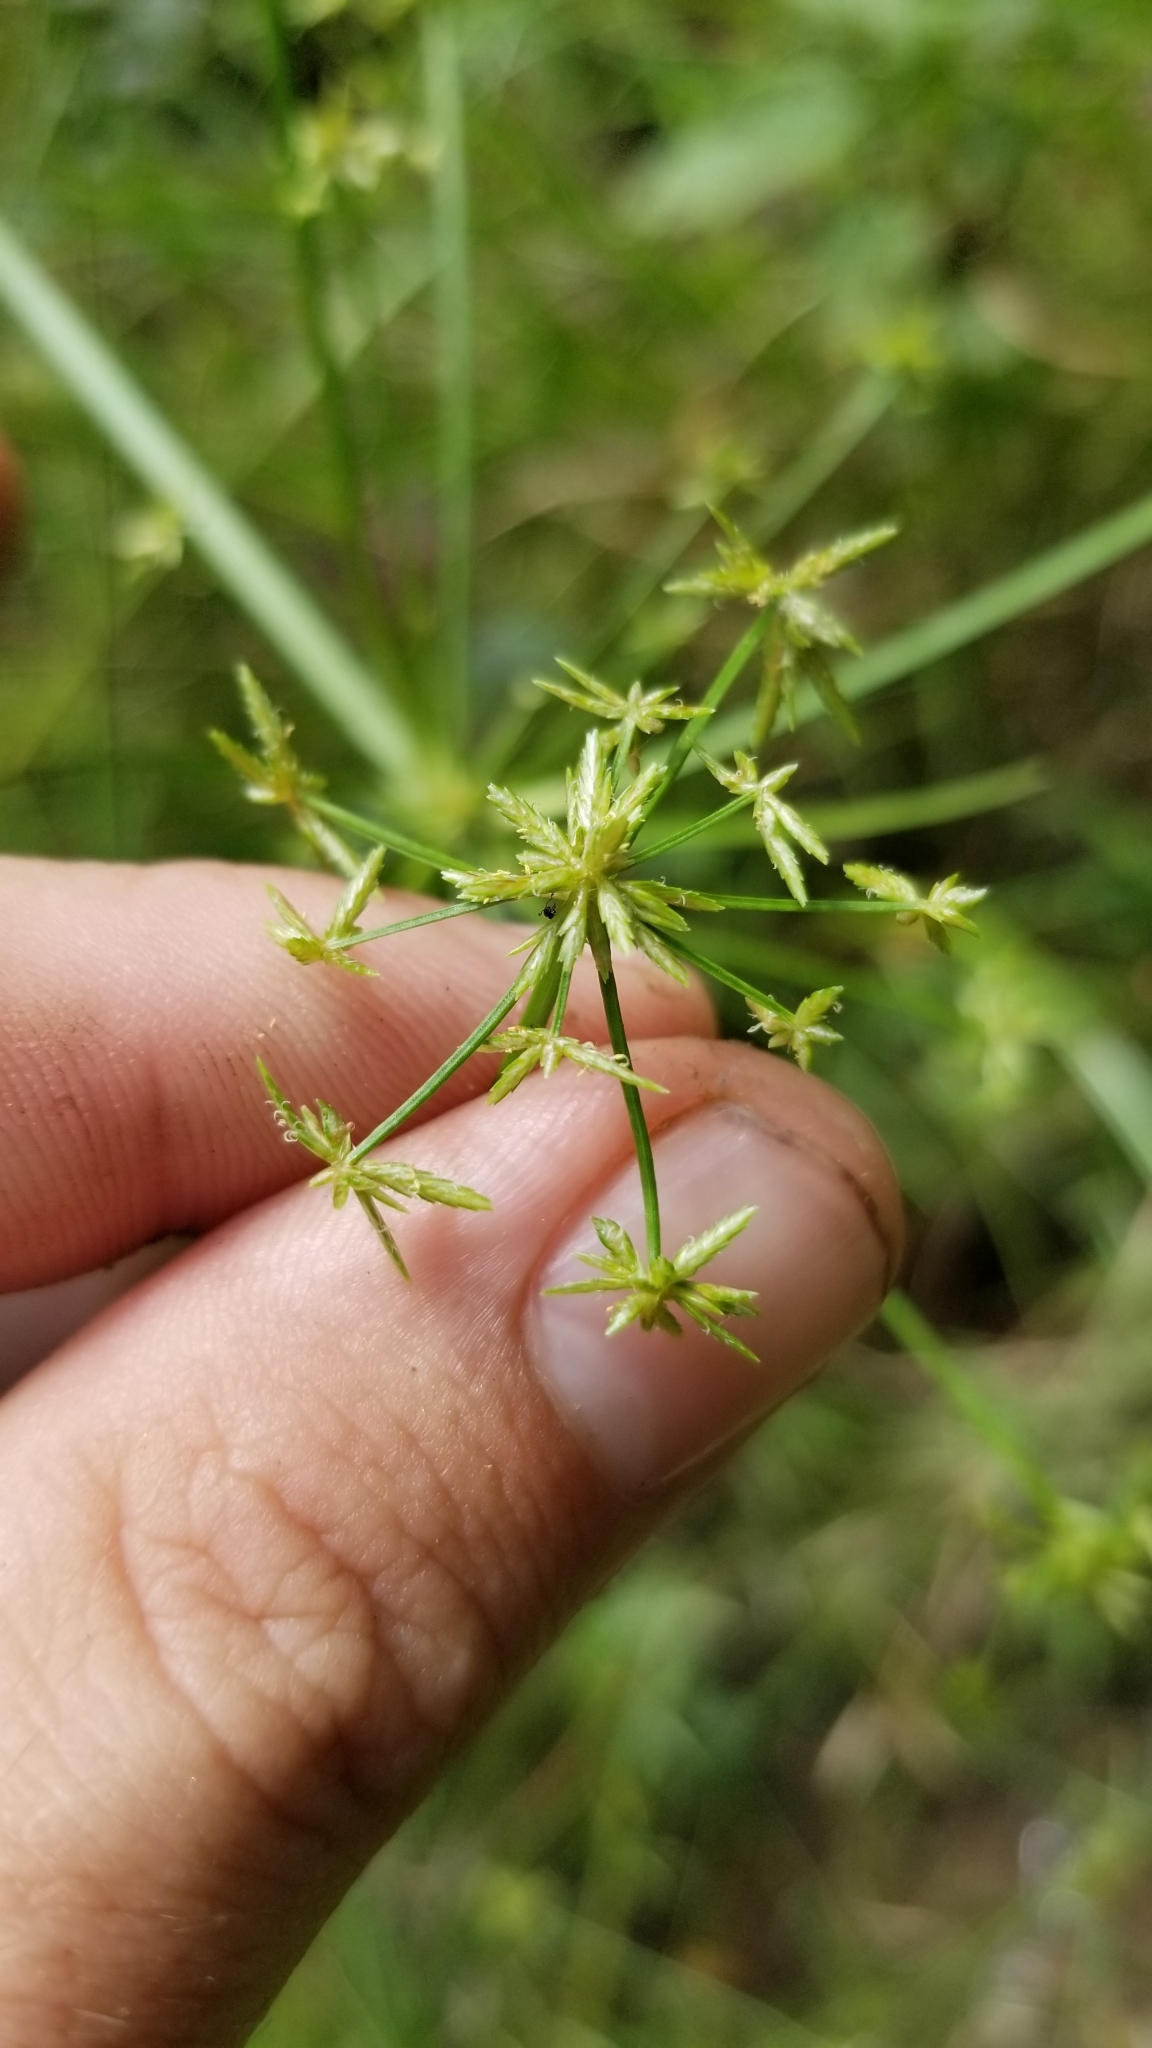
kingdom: Plantae
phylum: Tracheophyta
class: Liliopsida
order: Poales
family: Cyperaceae
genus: Cyperus
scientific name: Cyperus haspan
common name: Haspan flatsedge
